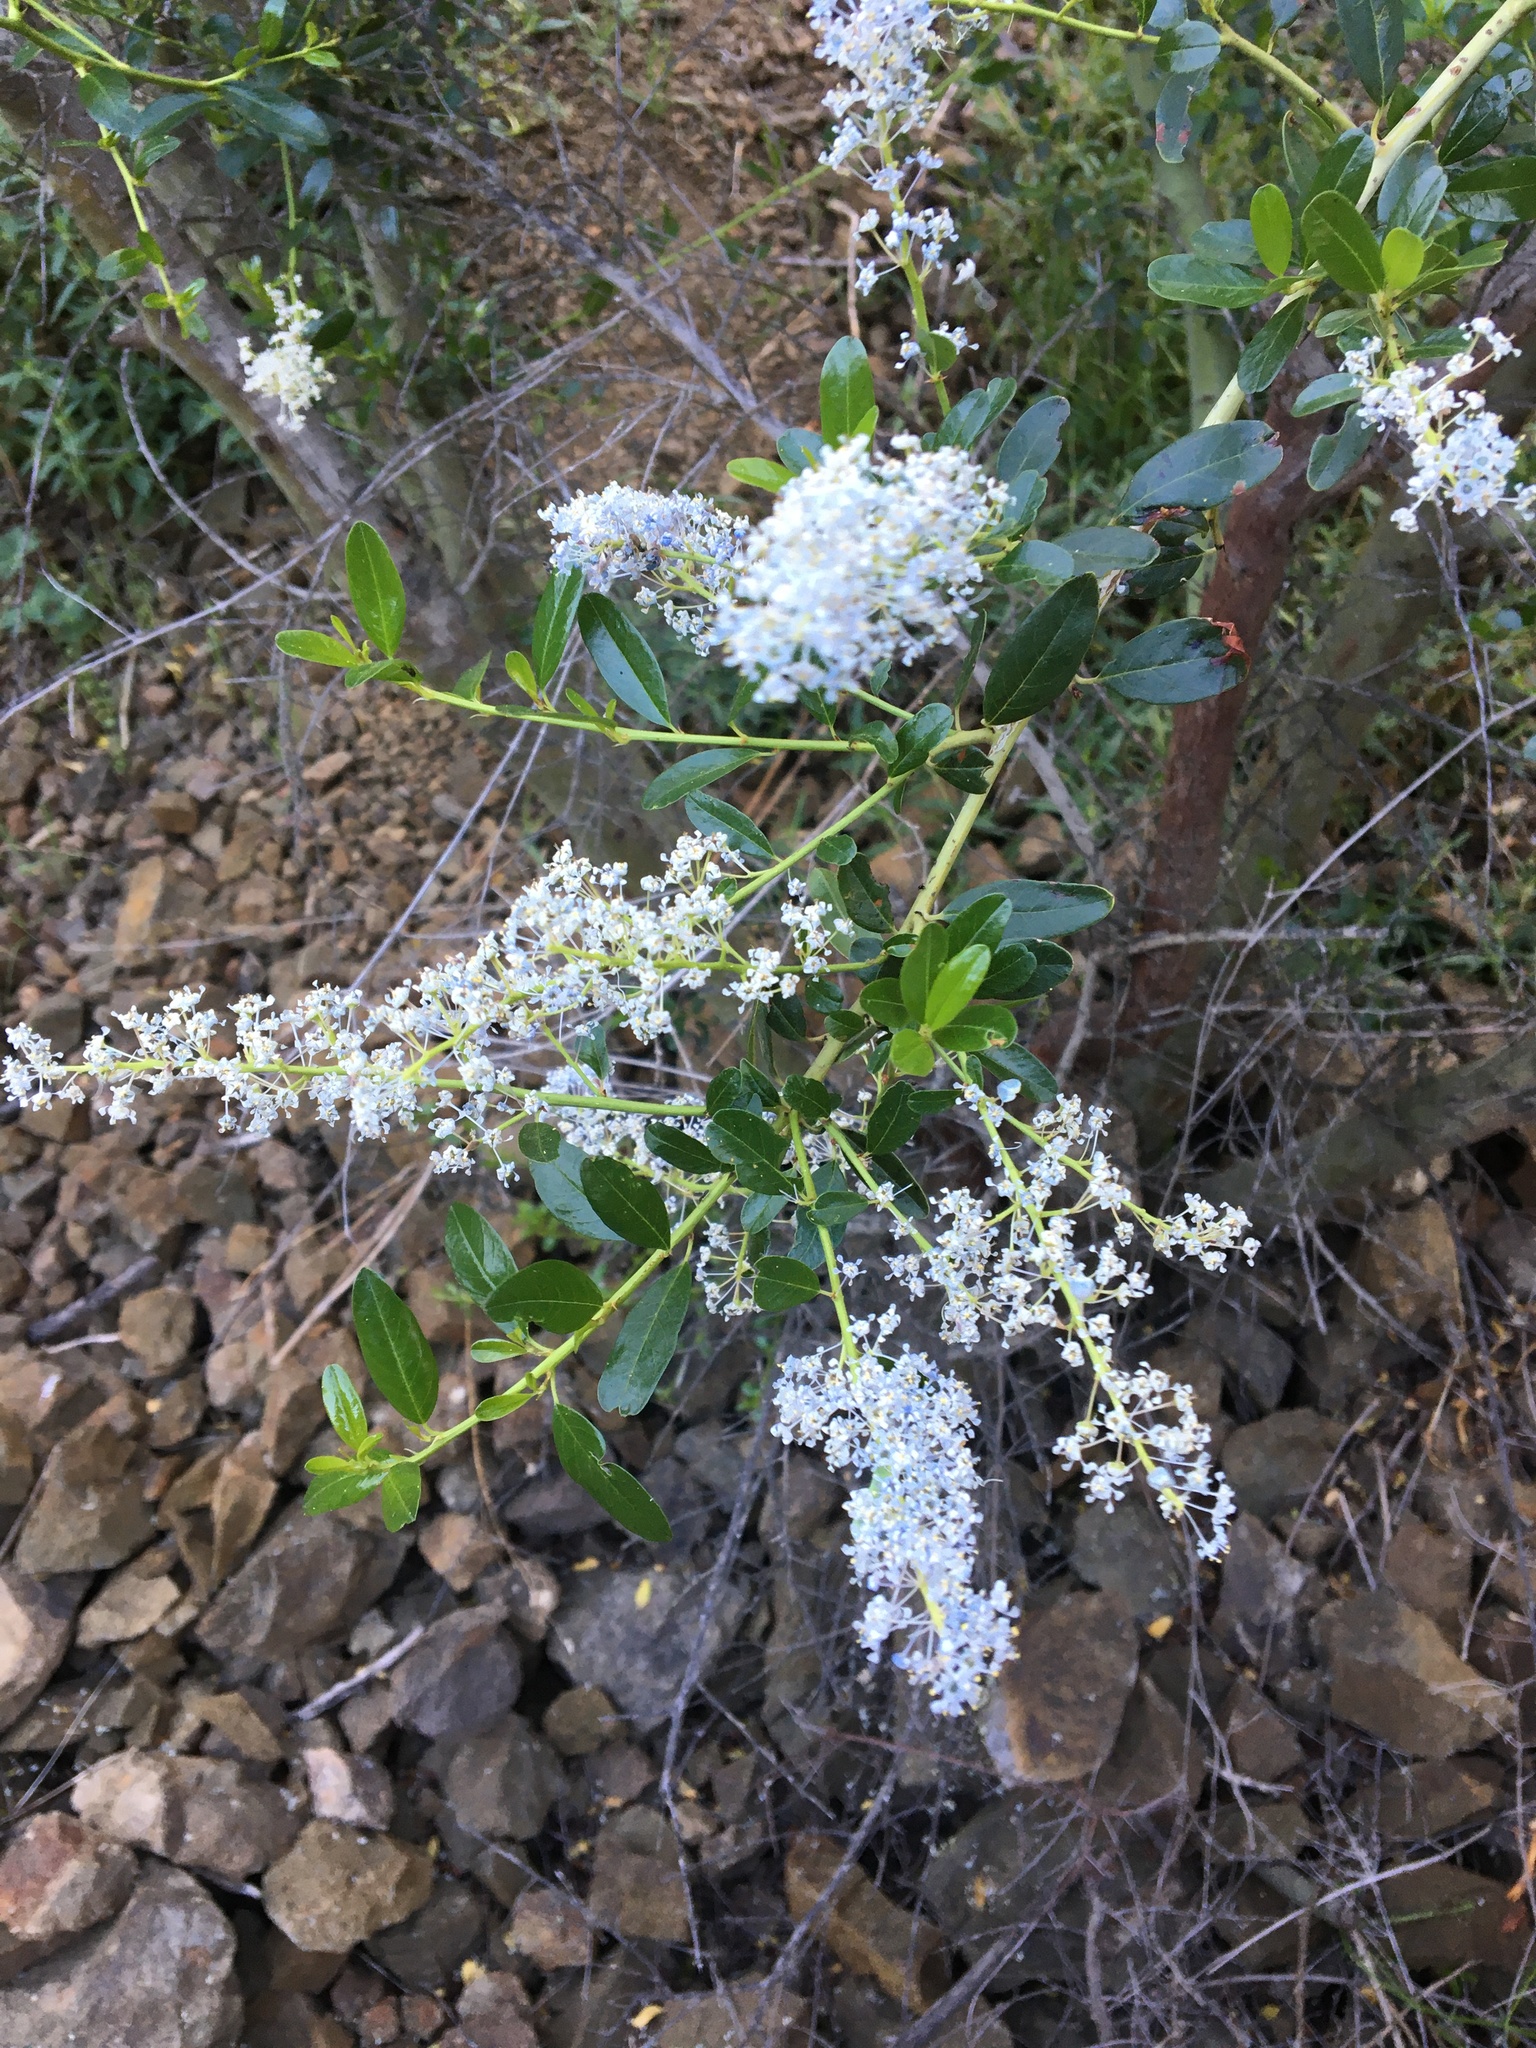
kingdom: Plantae
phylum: Tracheophyta
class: Magnoliopsida
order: Rosales
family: Rhamnaceae
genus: Ceanothus
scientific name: Ceanothus spinosus
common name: Greenbark whitethorn
